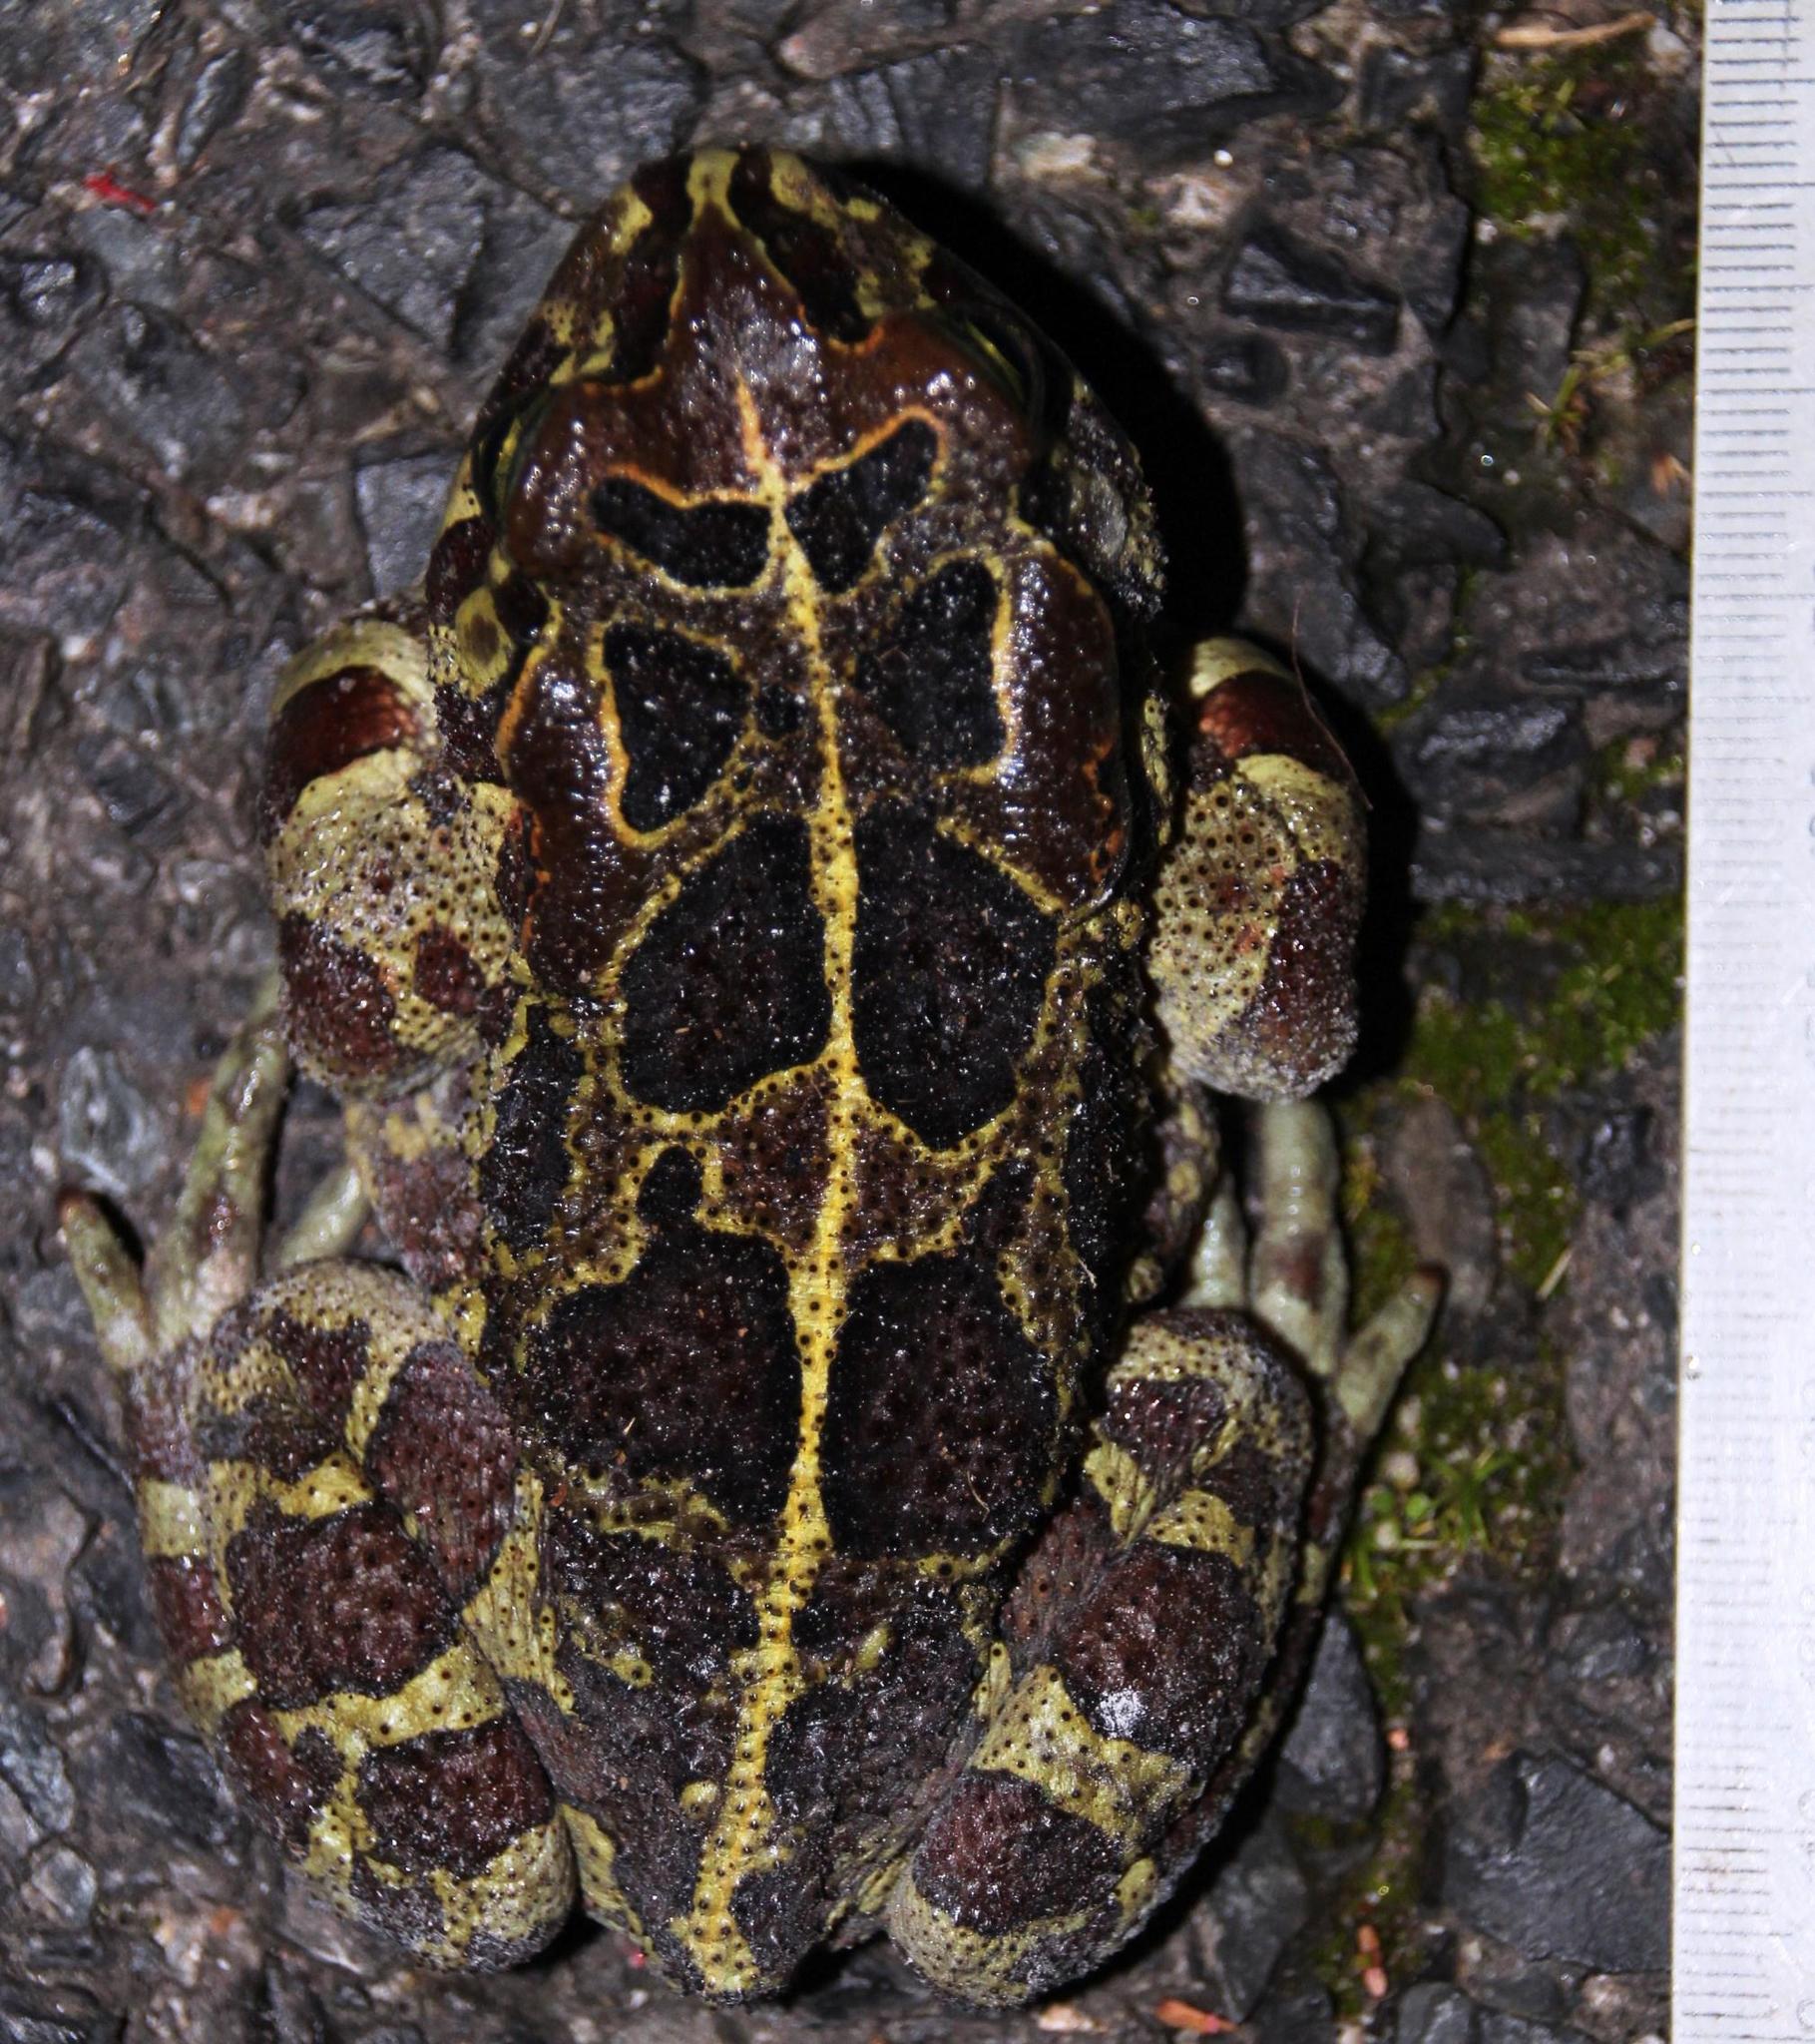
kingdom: Animalia
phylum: Chordata
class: Amphibia
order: Anura
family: Bufonidae
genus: Sclerophrys
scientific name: Sclerophrys pantherina
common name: Panther toad
